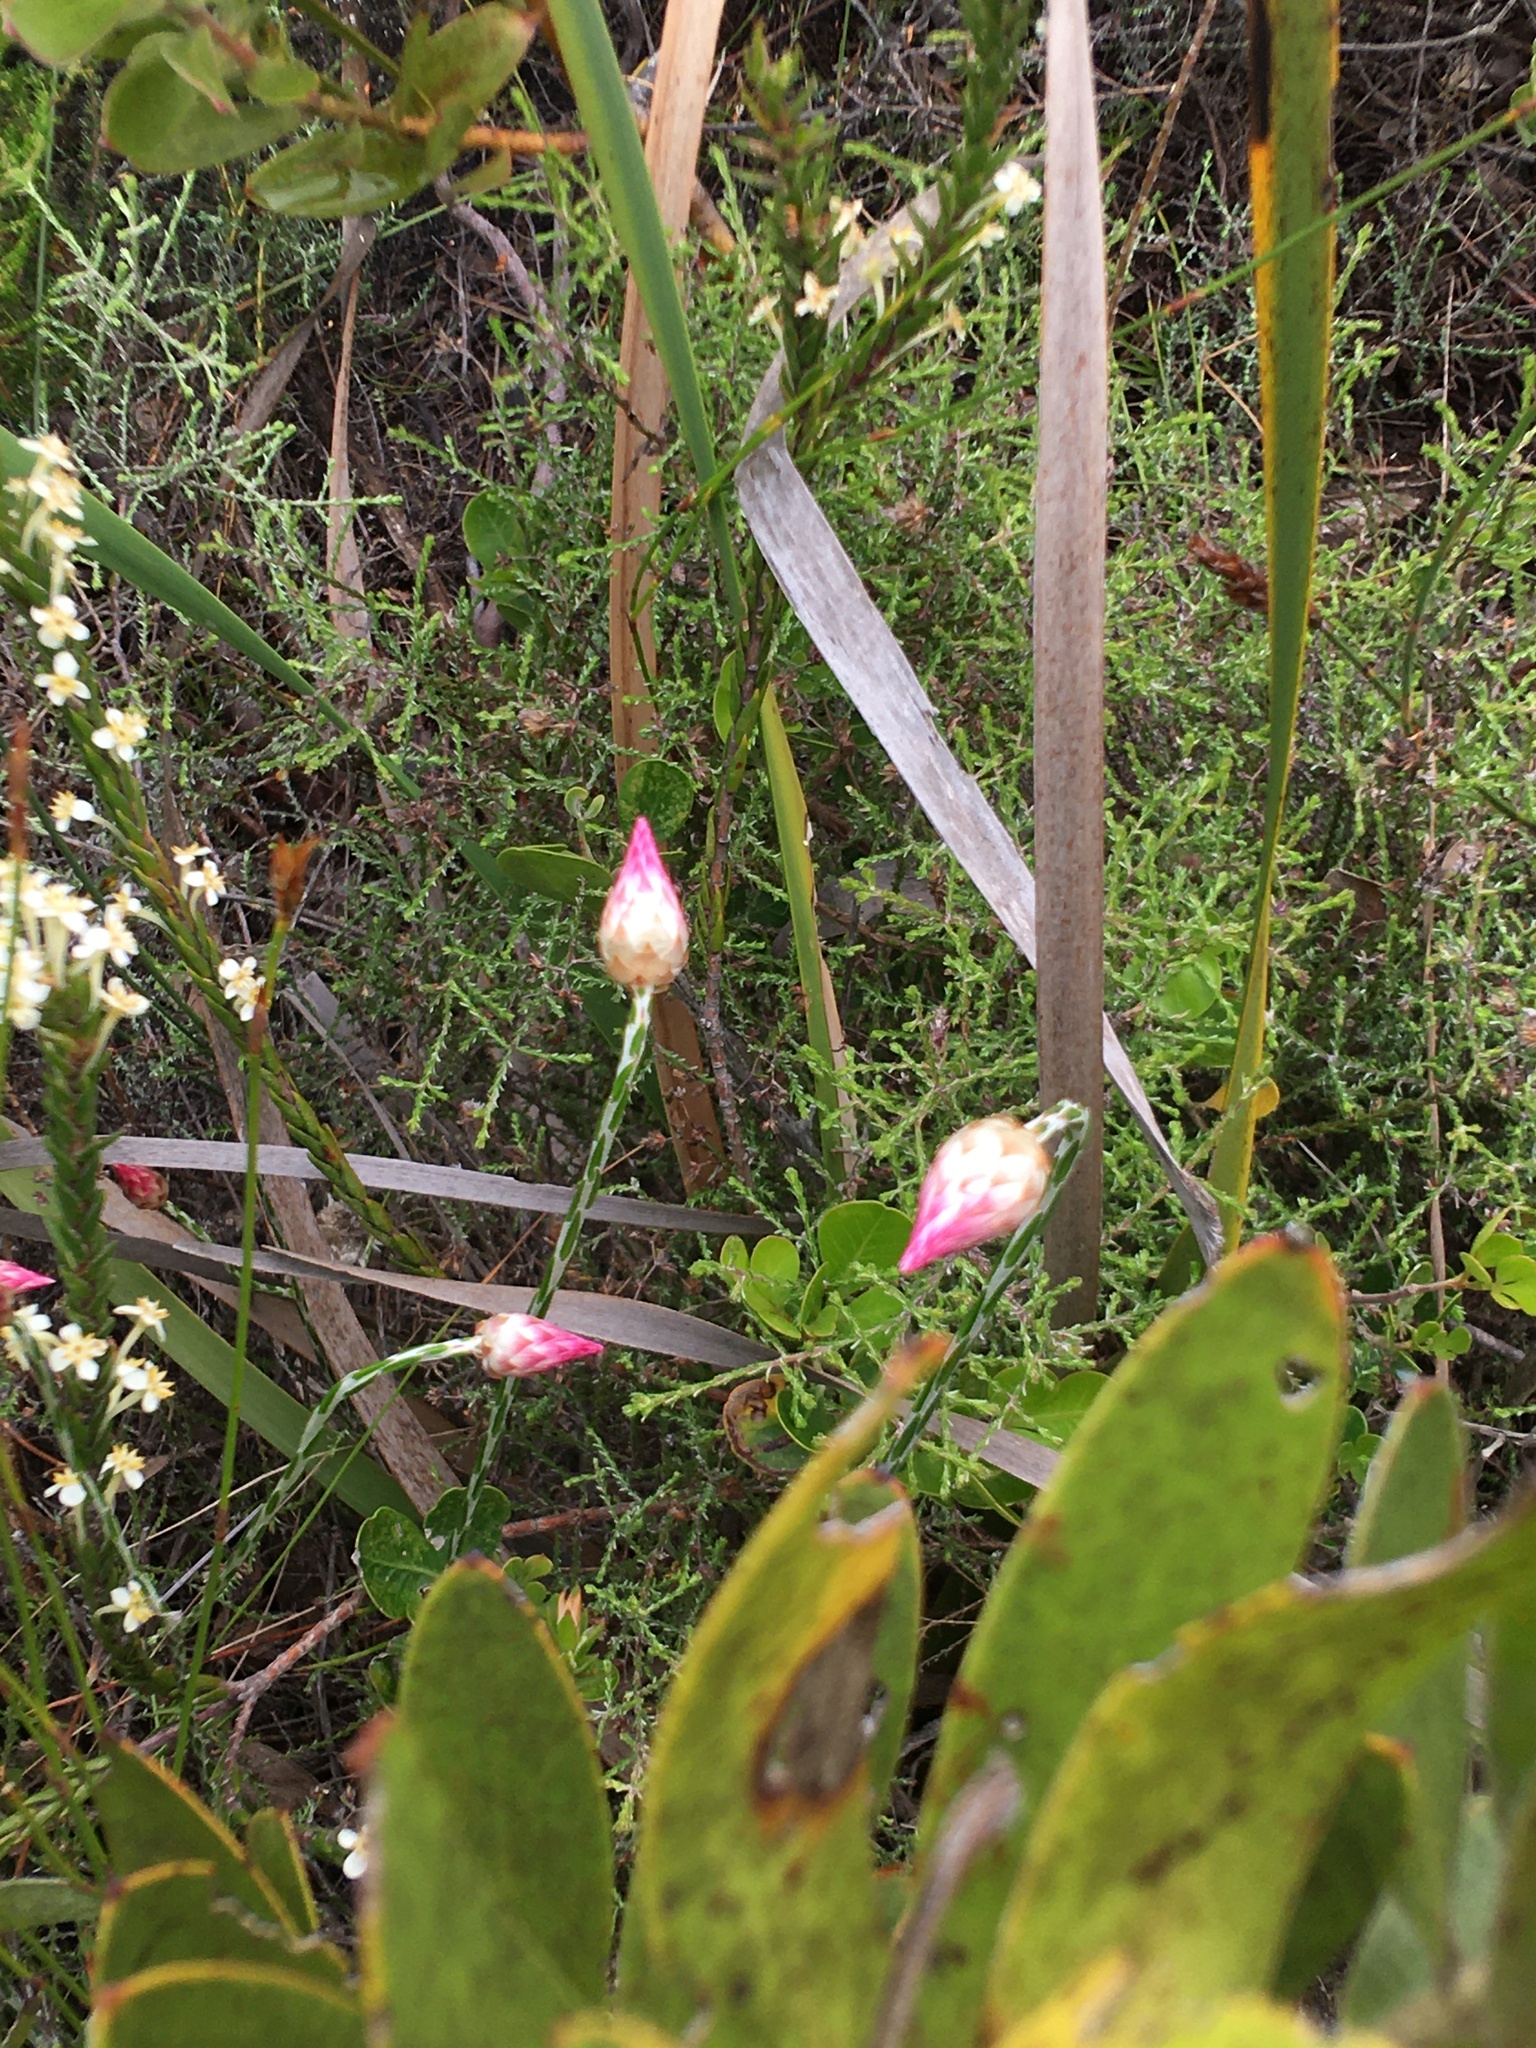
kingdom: Plantae
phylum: Tracheophyta
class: Magnoliopsida
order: Asterales
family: Asteraceae
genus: Edmondia
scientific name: Edmondia sesamoides
